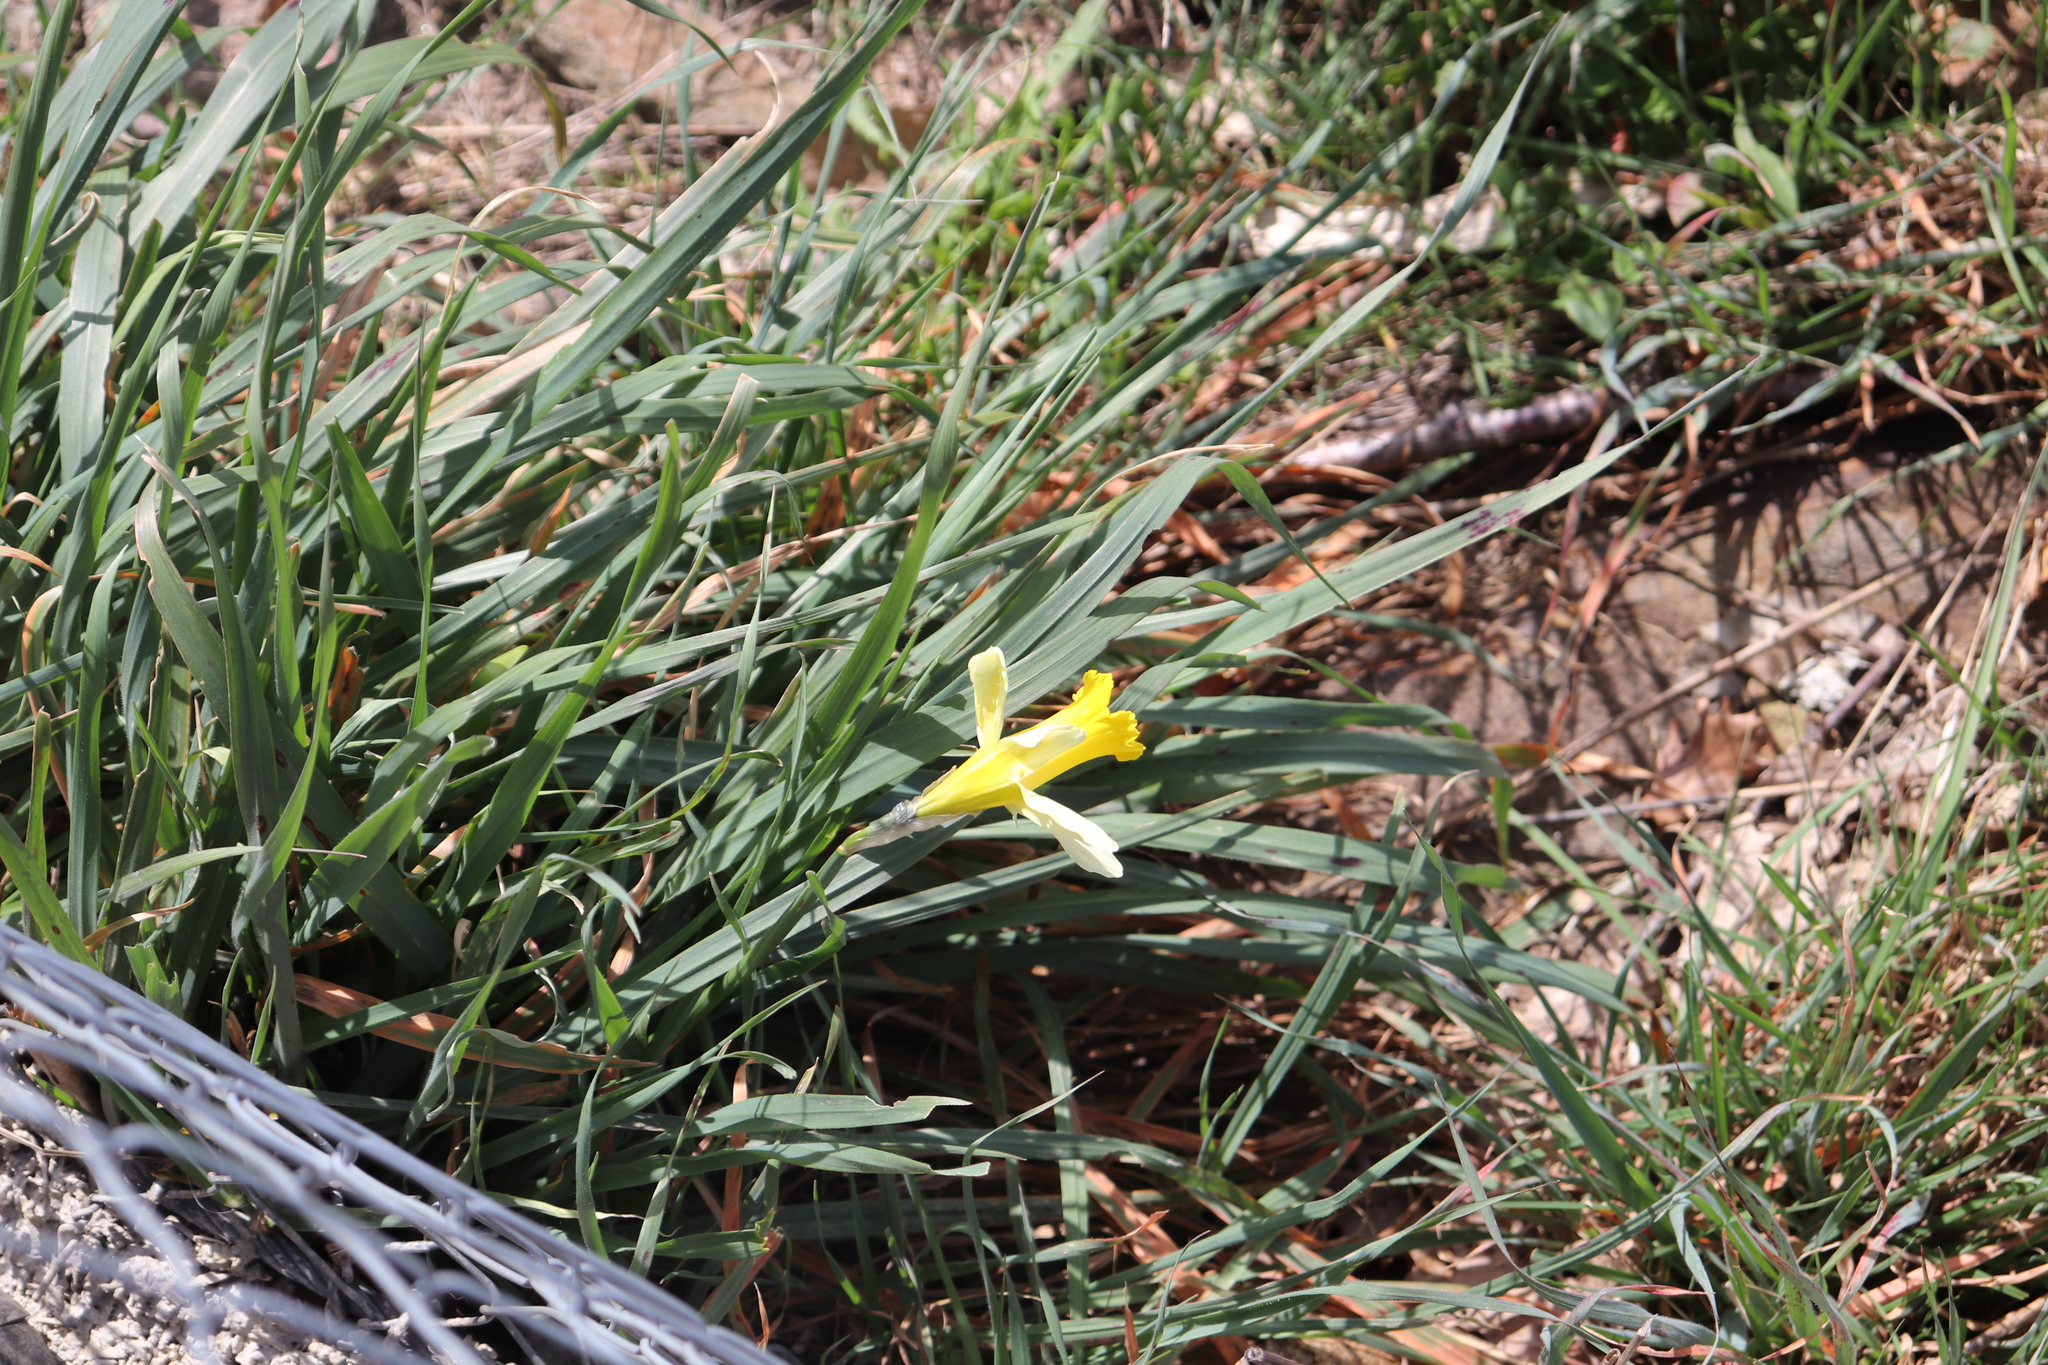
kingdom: Plantae
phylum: Tracheophyta
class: Liliopsida
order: Asparagales
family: Amaryllidaceae
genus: Narcissus
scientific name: Narcissus pseudonarcissus
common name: Daffodil
